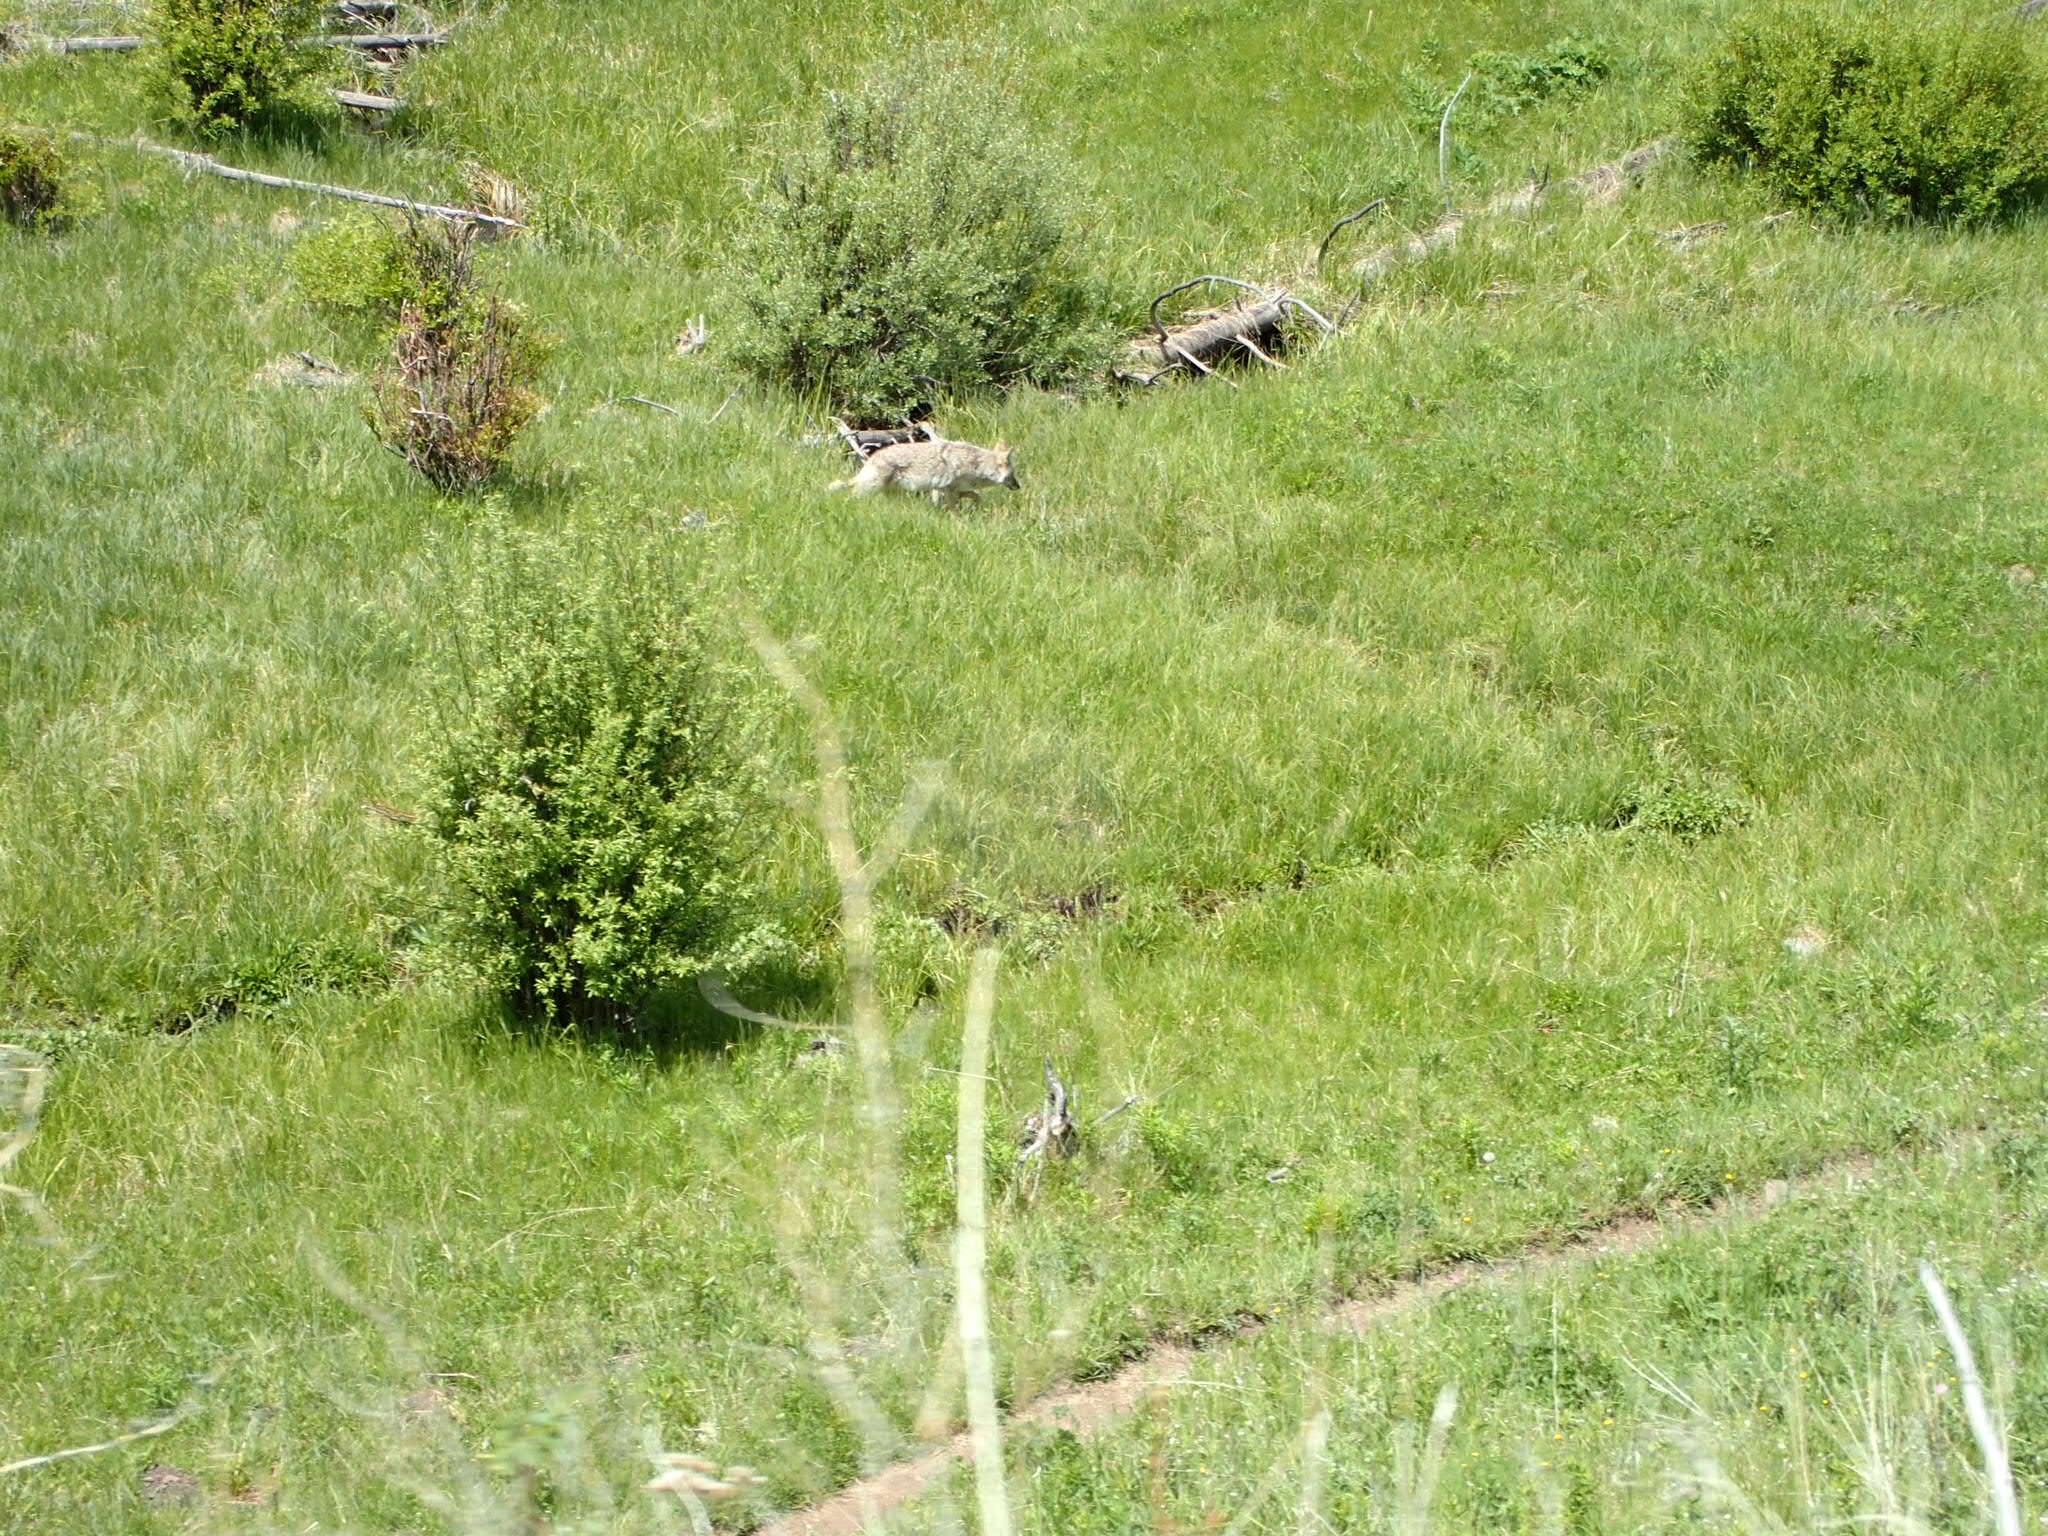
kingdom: Animalia
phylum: Chordata
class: Mammalia
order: Carnivora
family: Canidae
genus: Canis
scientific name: Canis latrans
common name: Coyote
